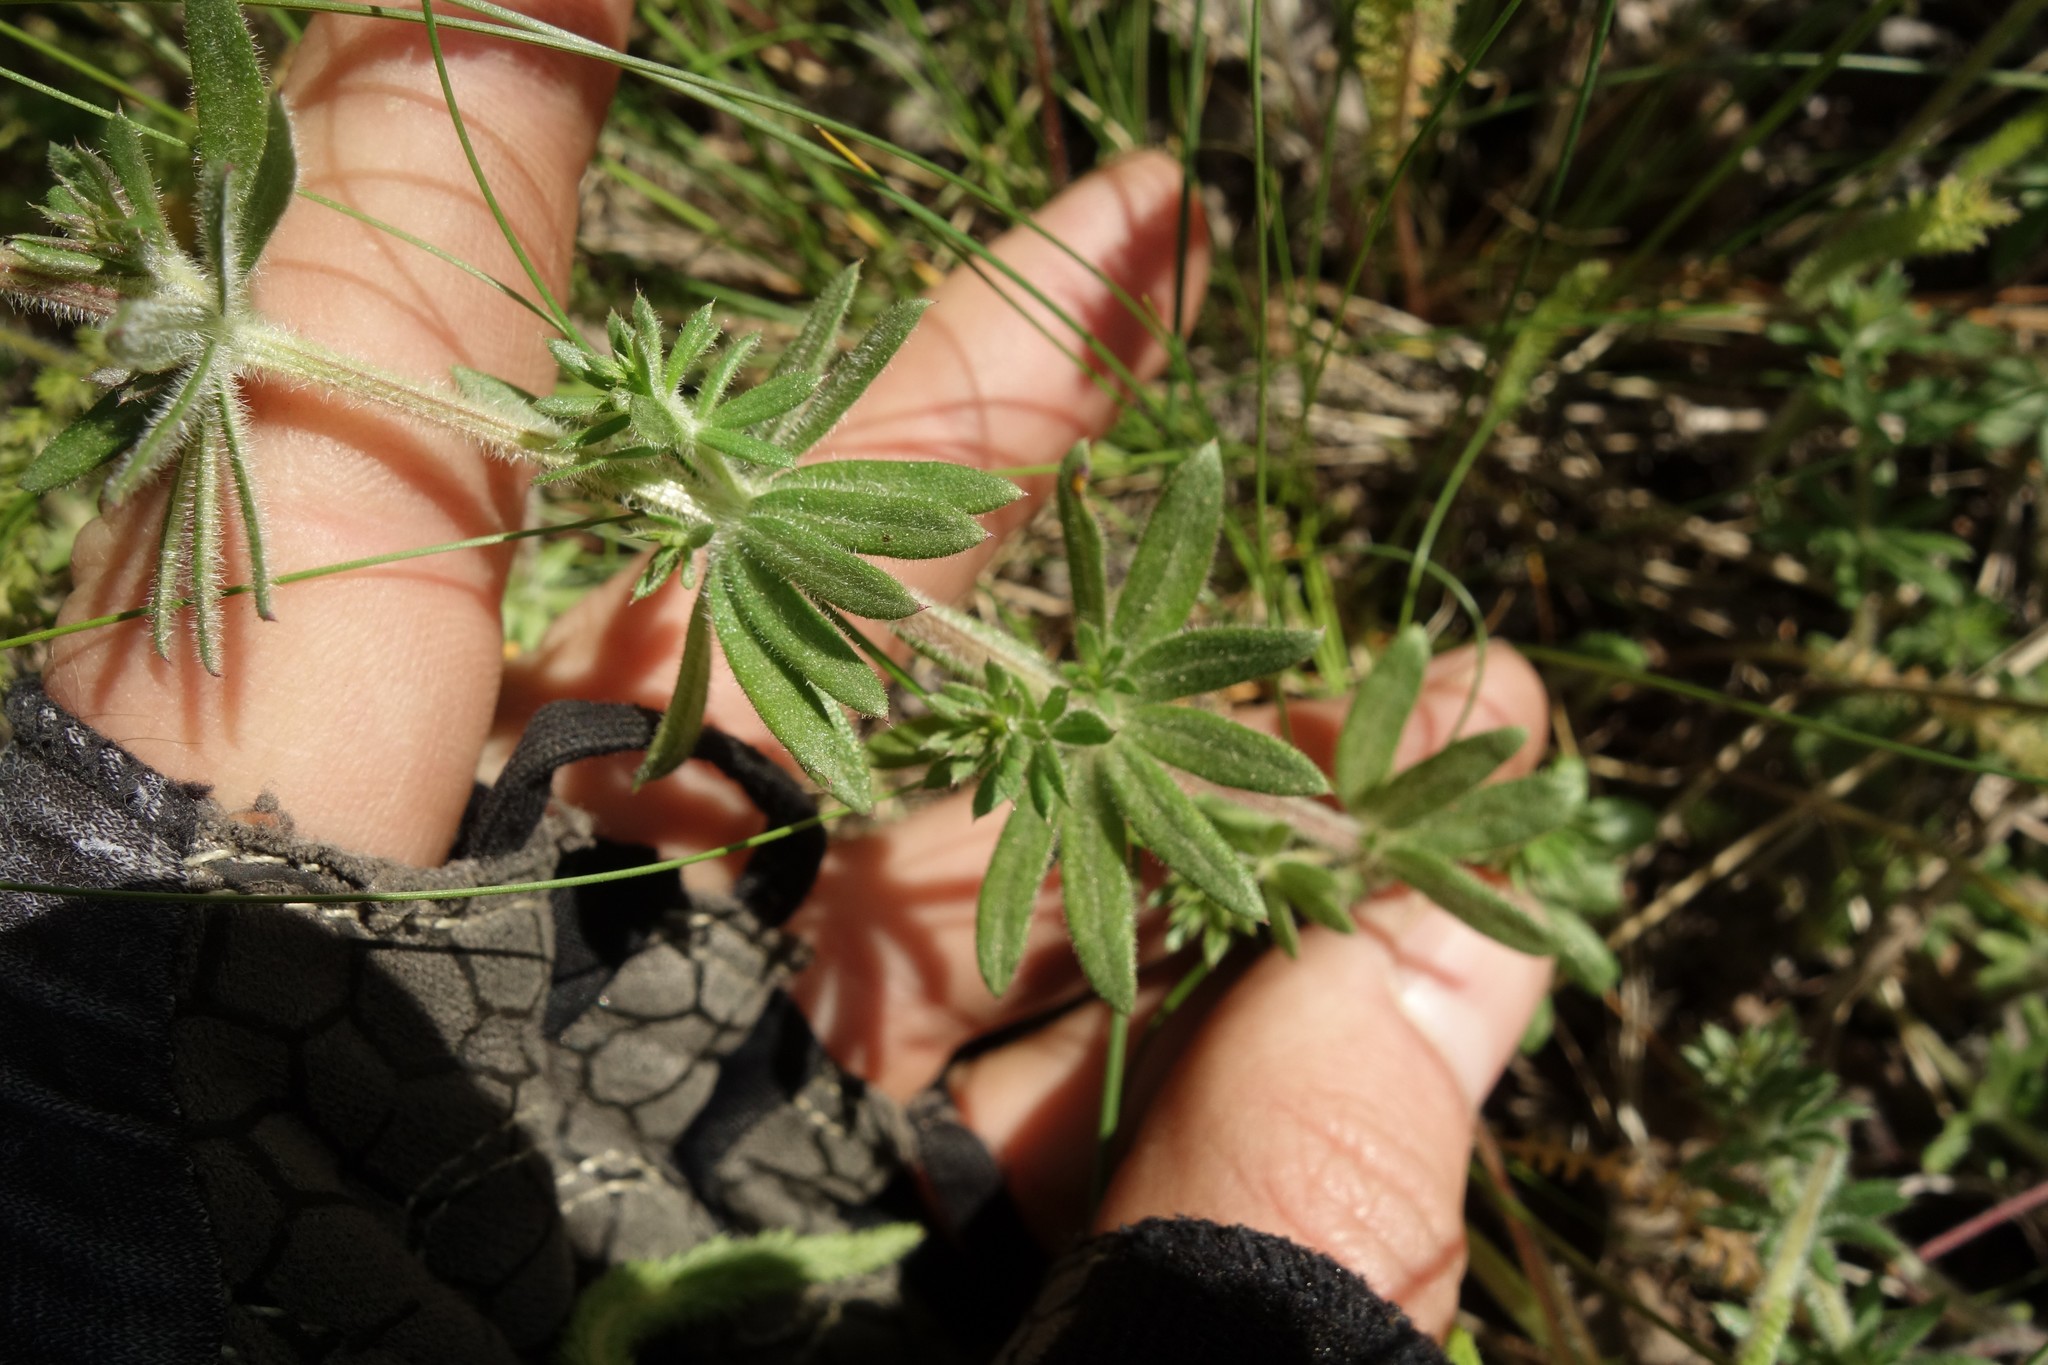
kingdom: Plantae
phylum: Tracheophyta
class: Magnoliopsida
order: Gentianales
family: Rubiaceae
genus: Galium
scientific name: Galium humifusum
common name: Spreading bedstraw
